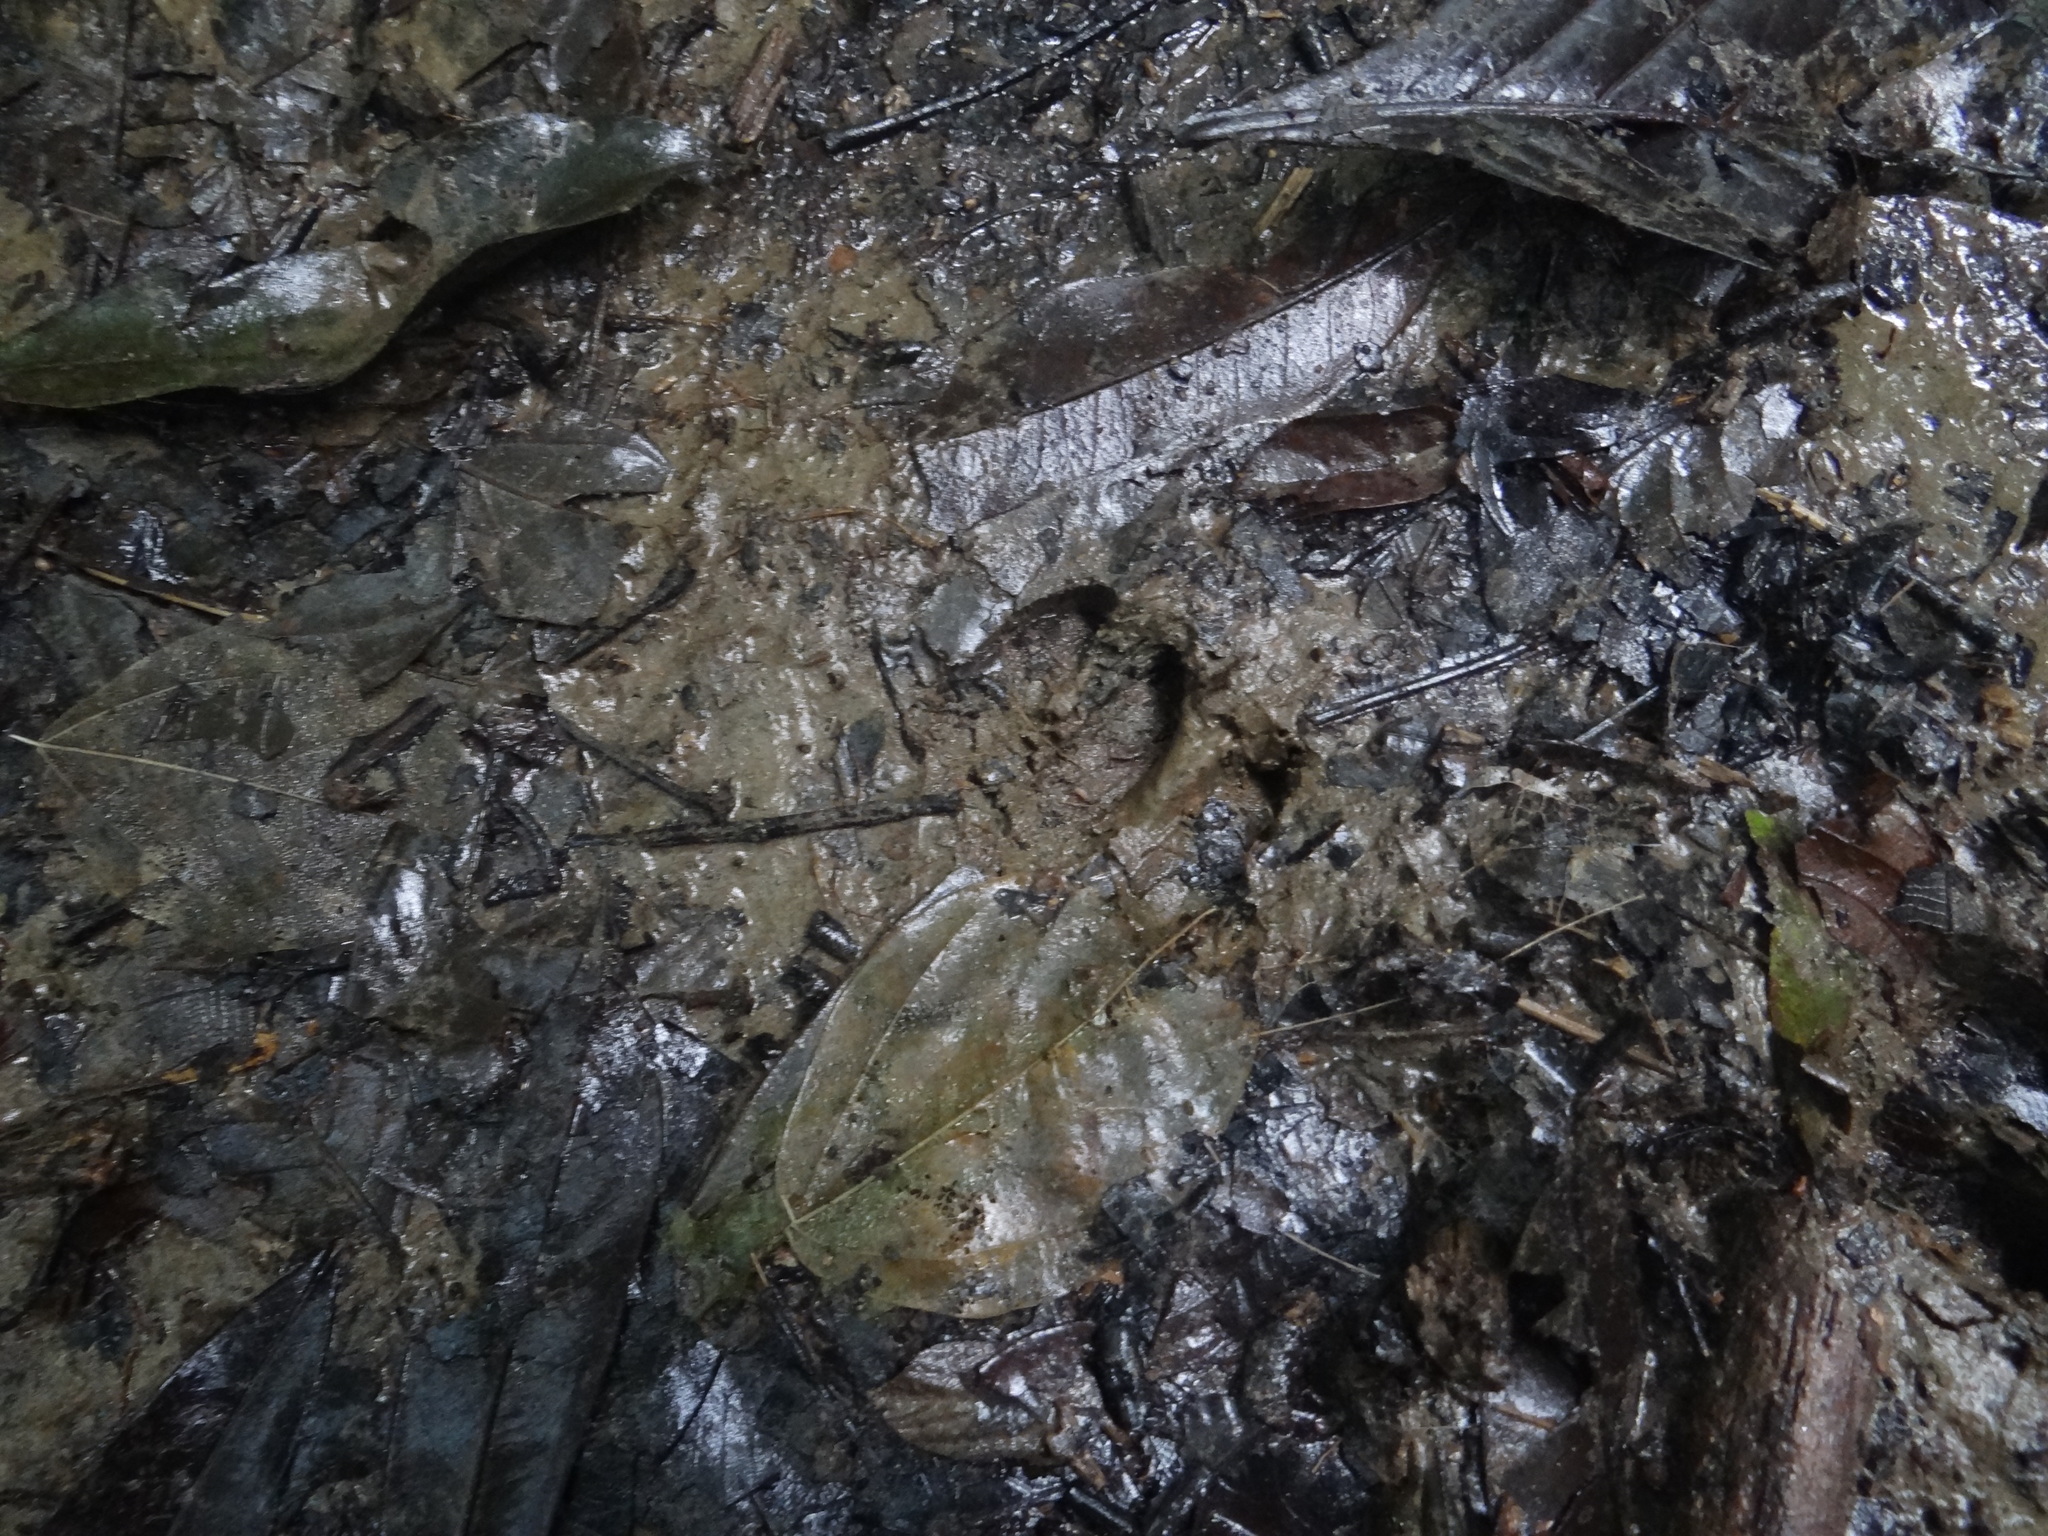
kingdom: Animalia
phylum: Chordata
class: Mammalia
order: Artiodactyla
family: Tayassuidae
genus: Pecari
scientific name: Pecari tajacu
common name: Collared peccary
